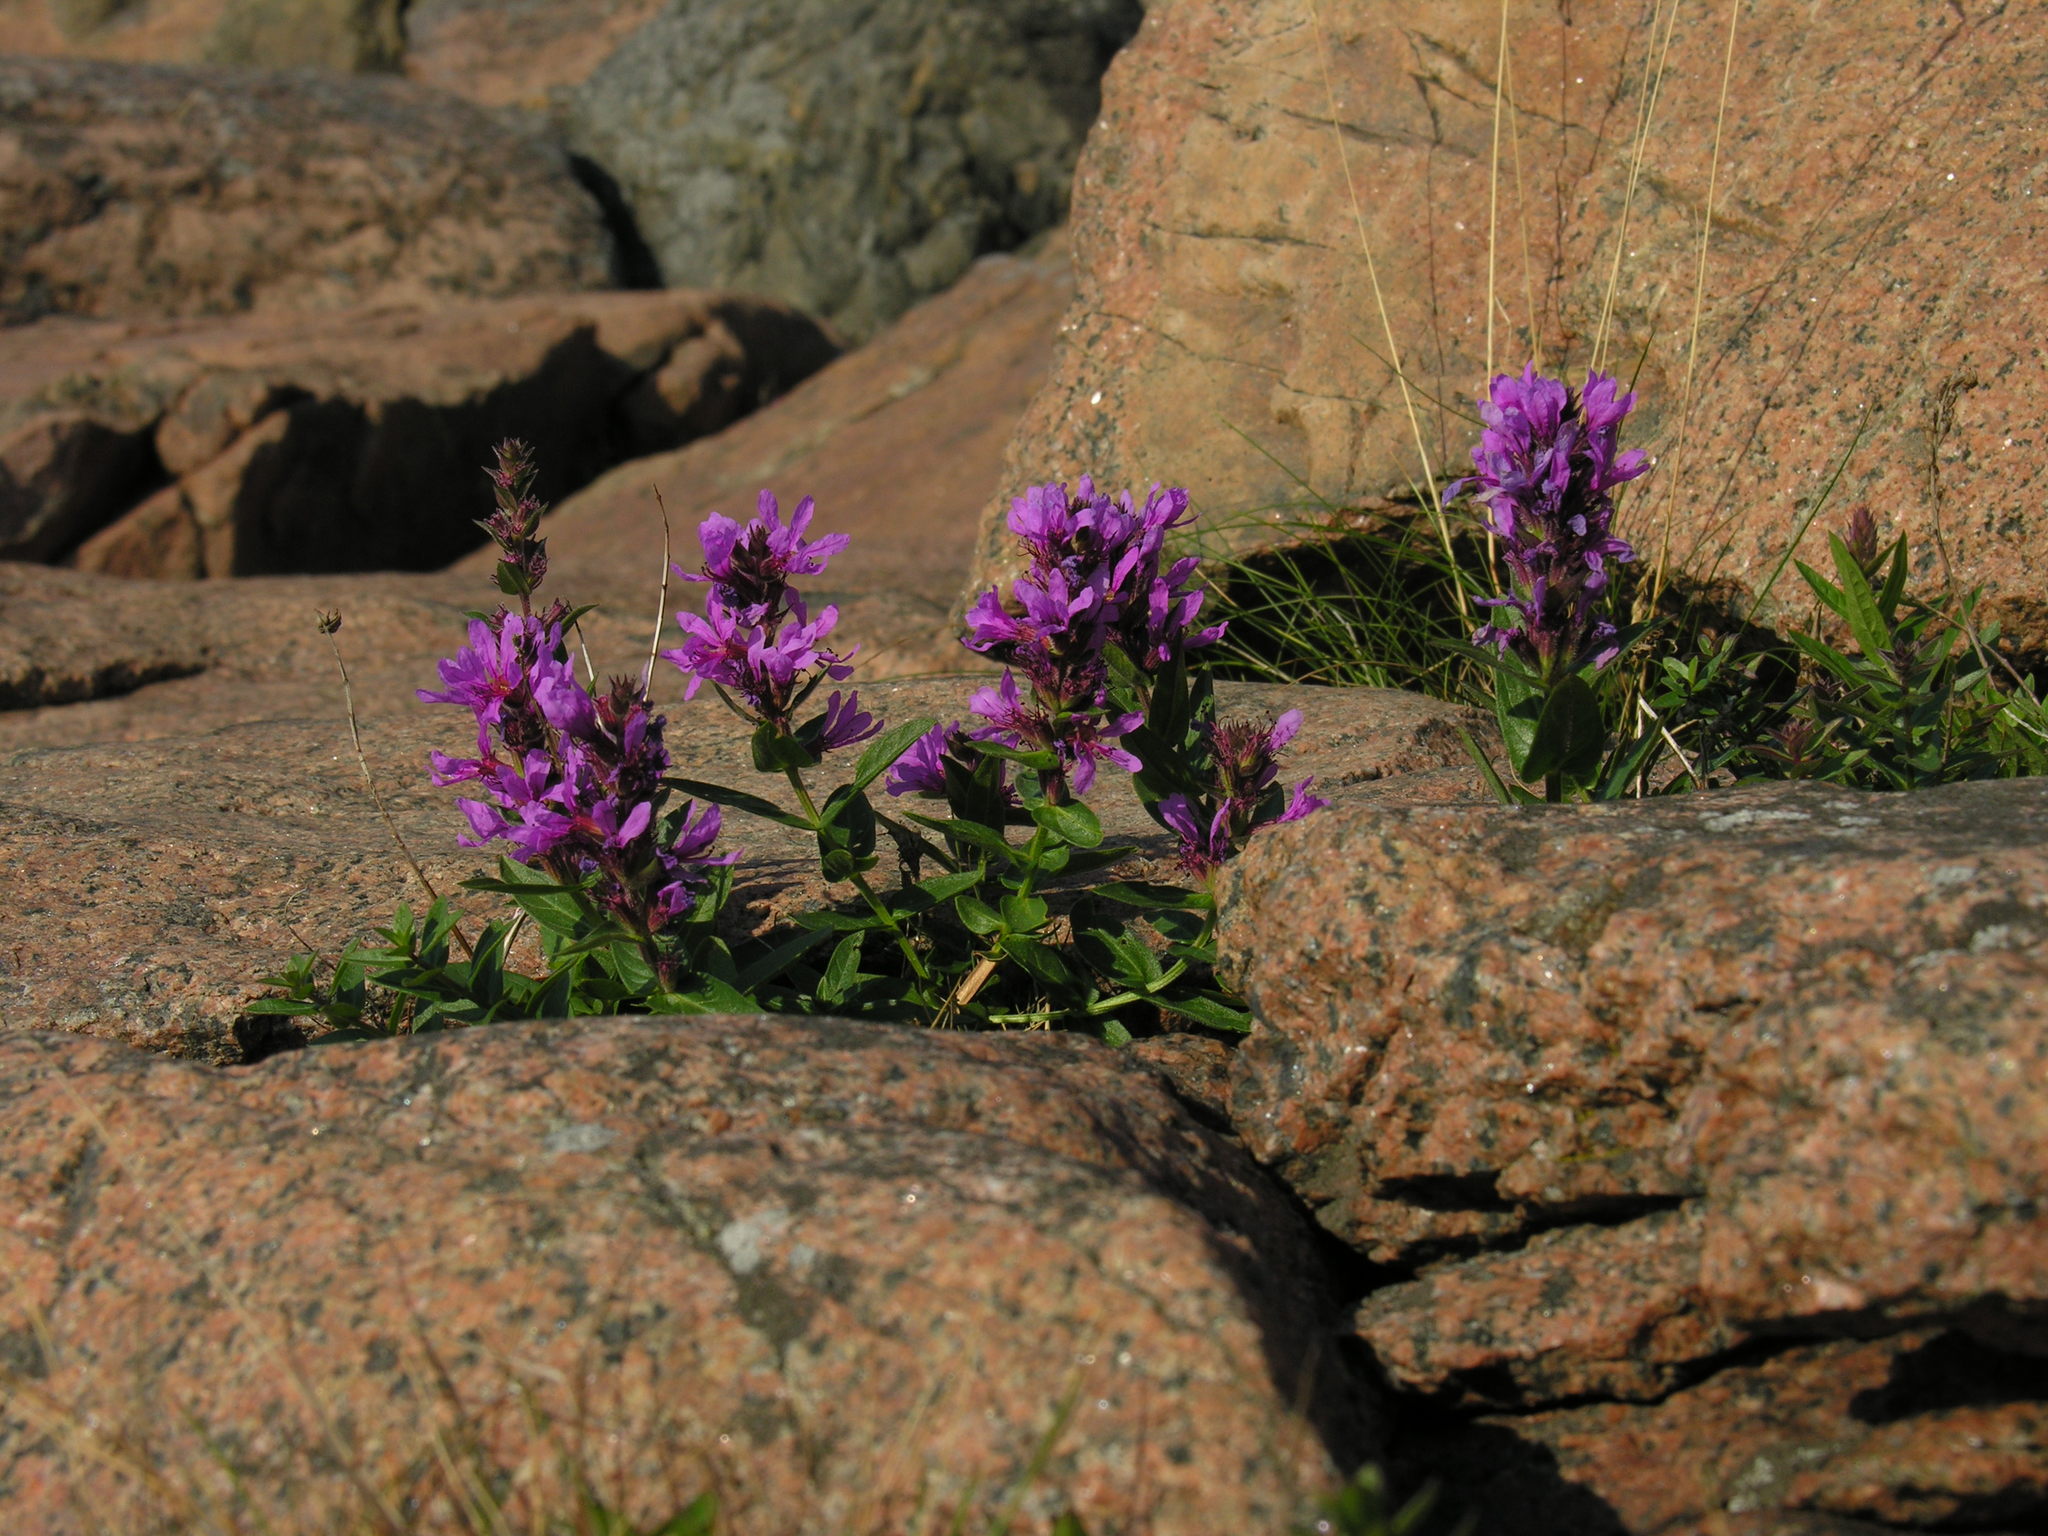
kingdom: Plantae
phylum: Tracheophyta
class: Magnoliopsida
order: Myrtales
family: Lythraceae
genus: Lythrum
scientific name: Lythrum intermedium
